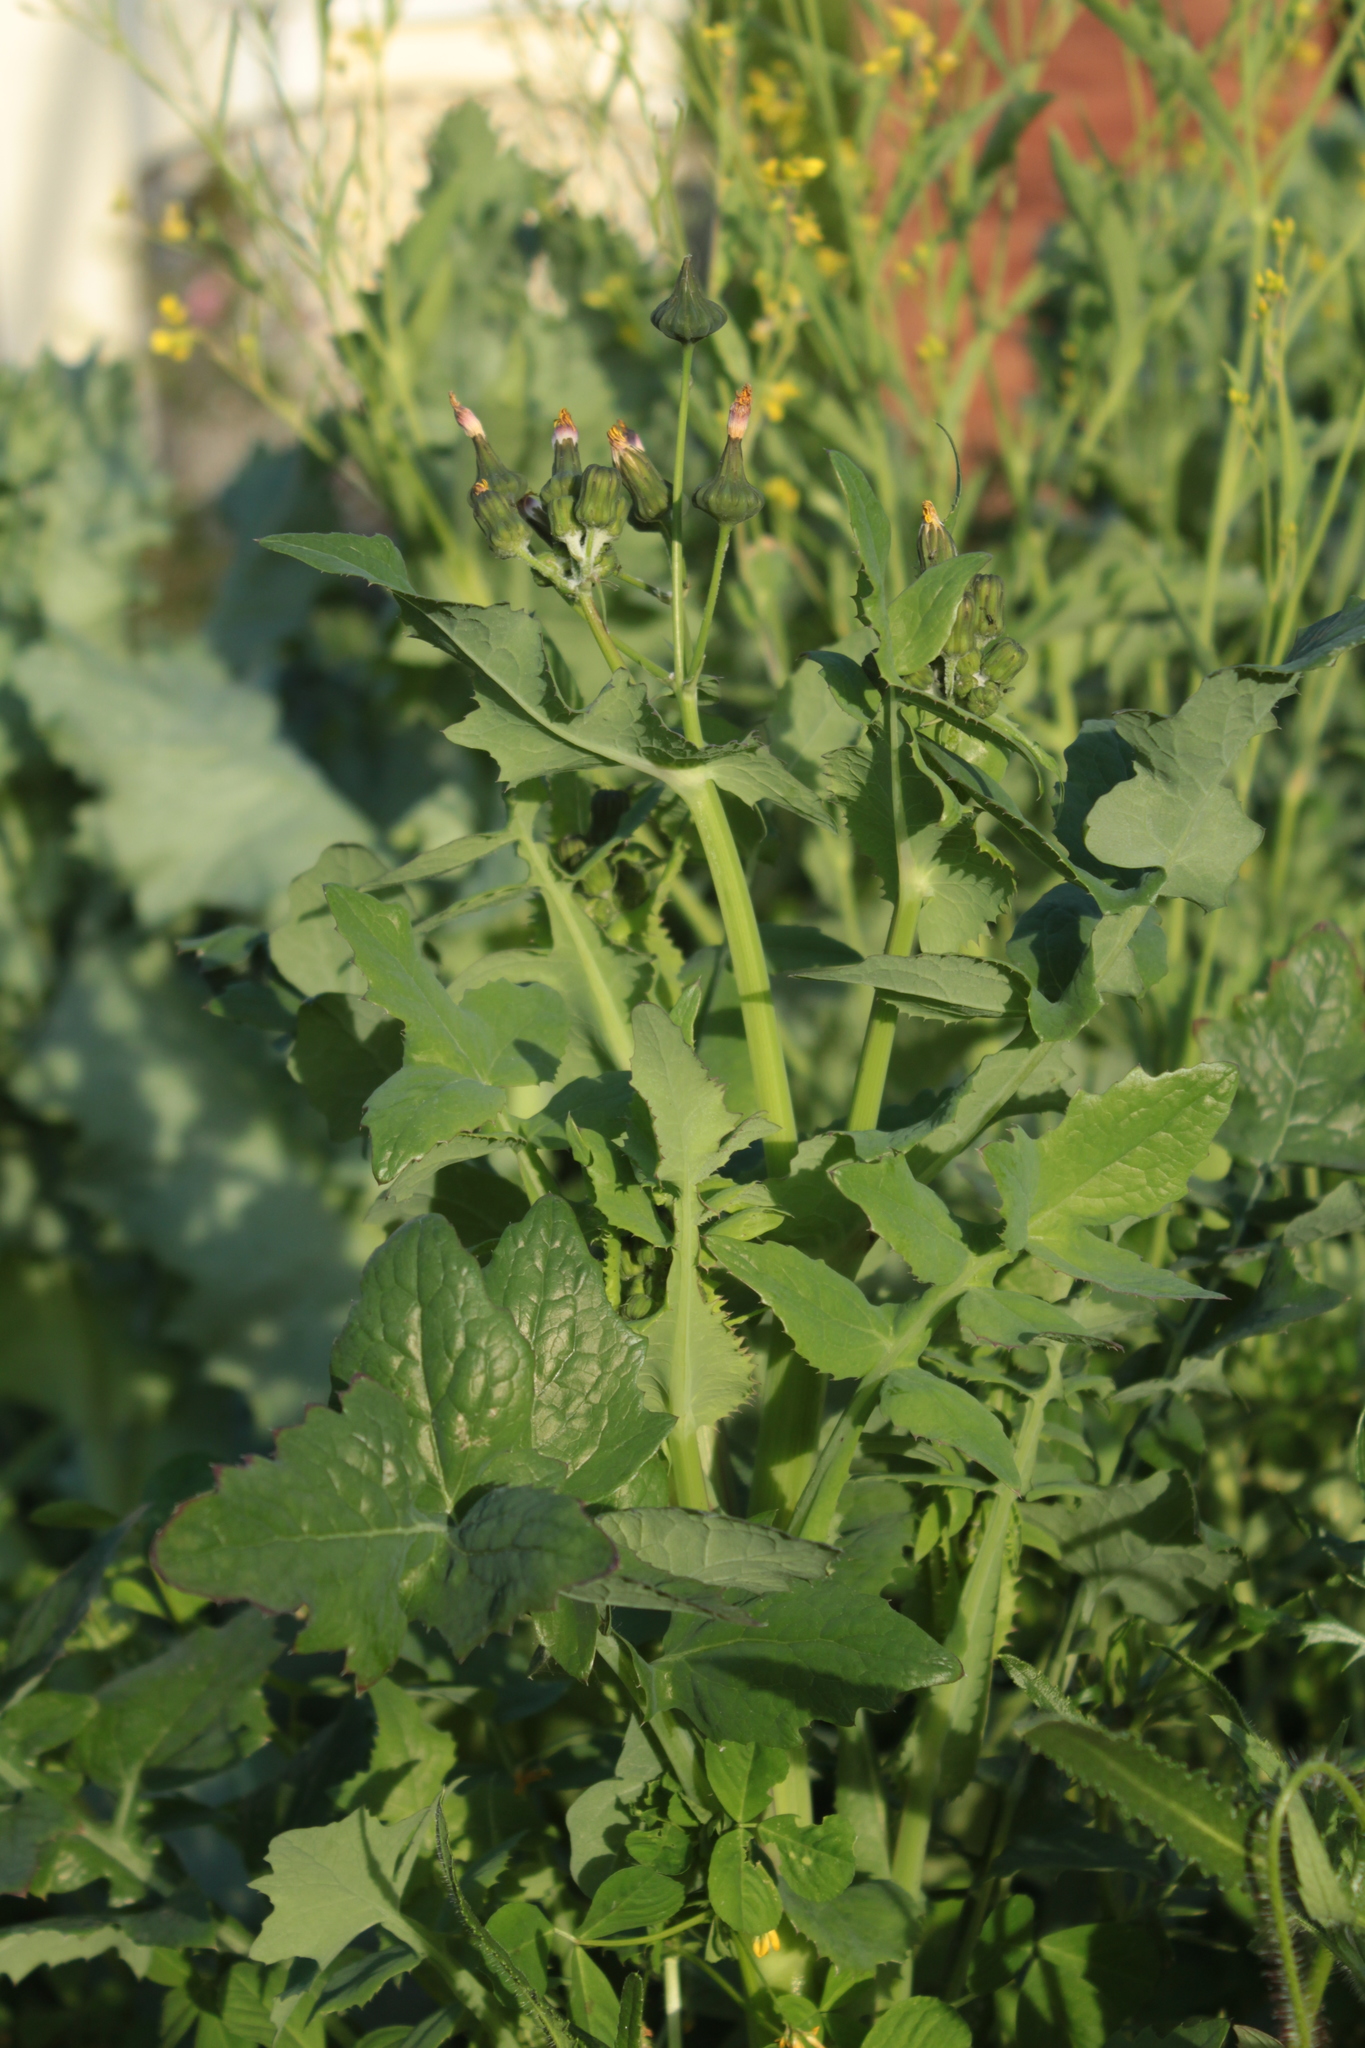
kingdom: Plantae
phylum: Tracheophyta
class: Magnoliopsida
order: Asterales
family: Asteraceae
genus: Sonchus
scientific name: Sonchus oleraceus
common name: Common sowthistle
